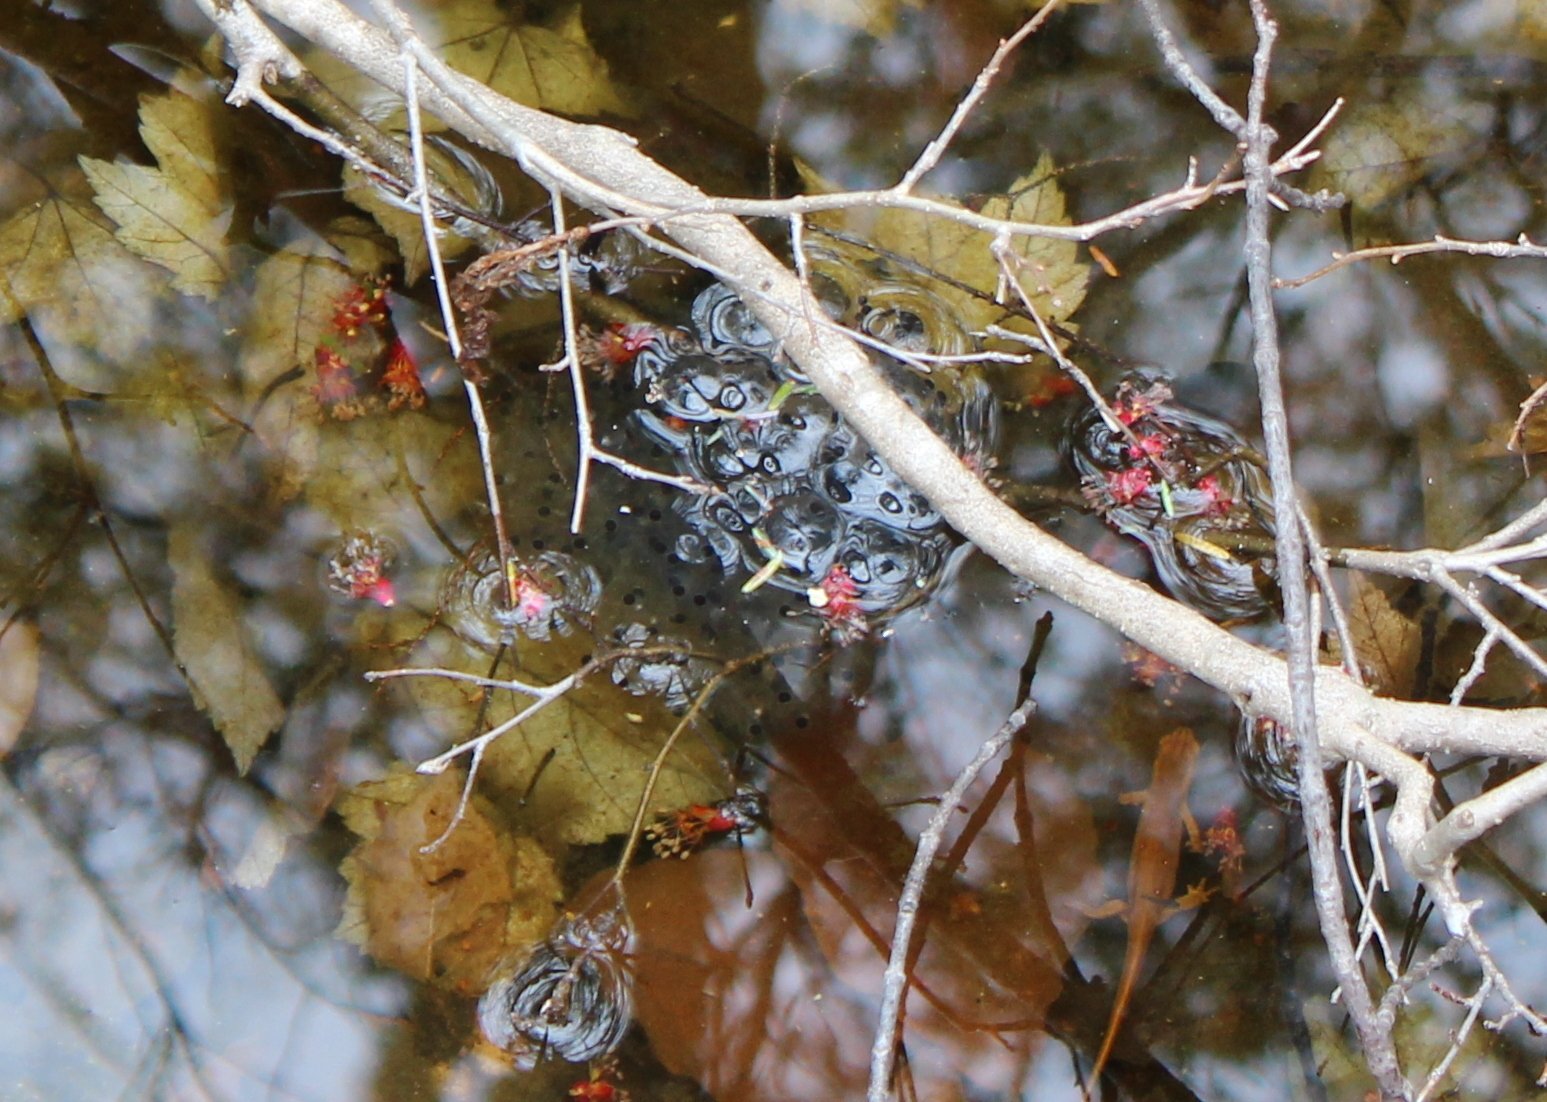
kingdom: Animalia
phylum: Chordata
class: Amphibia
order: Anura
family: Ranidae
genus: Lithobates
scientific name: Lithobates sylvaticus
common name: Wood frog
